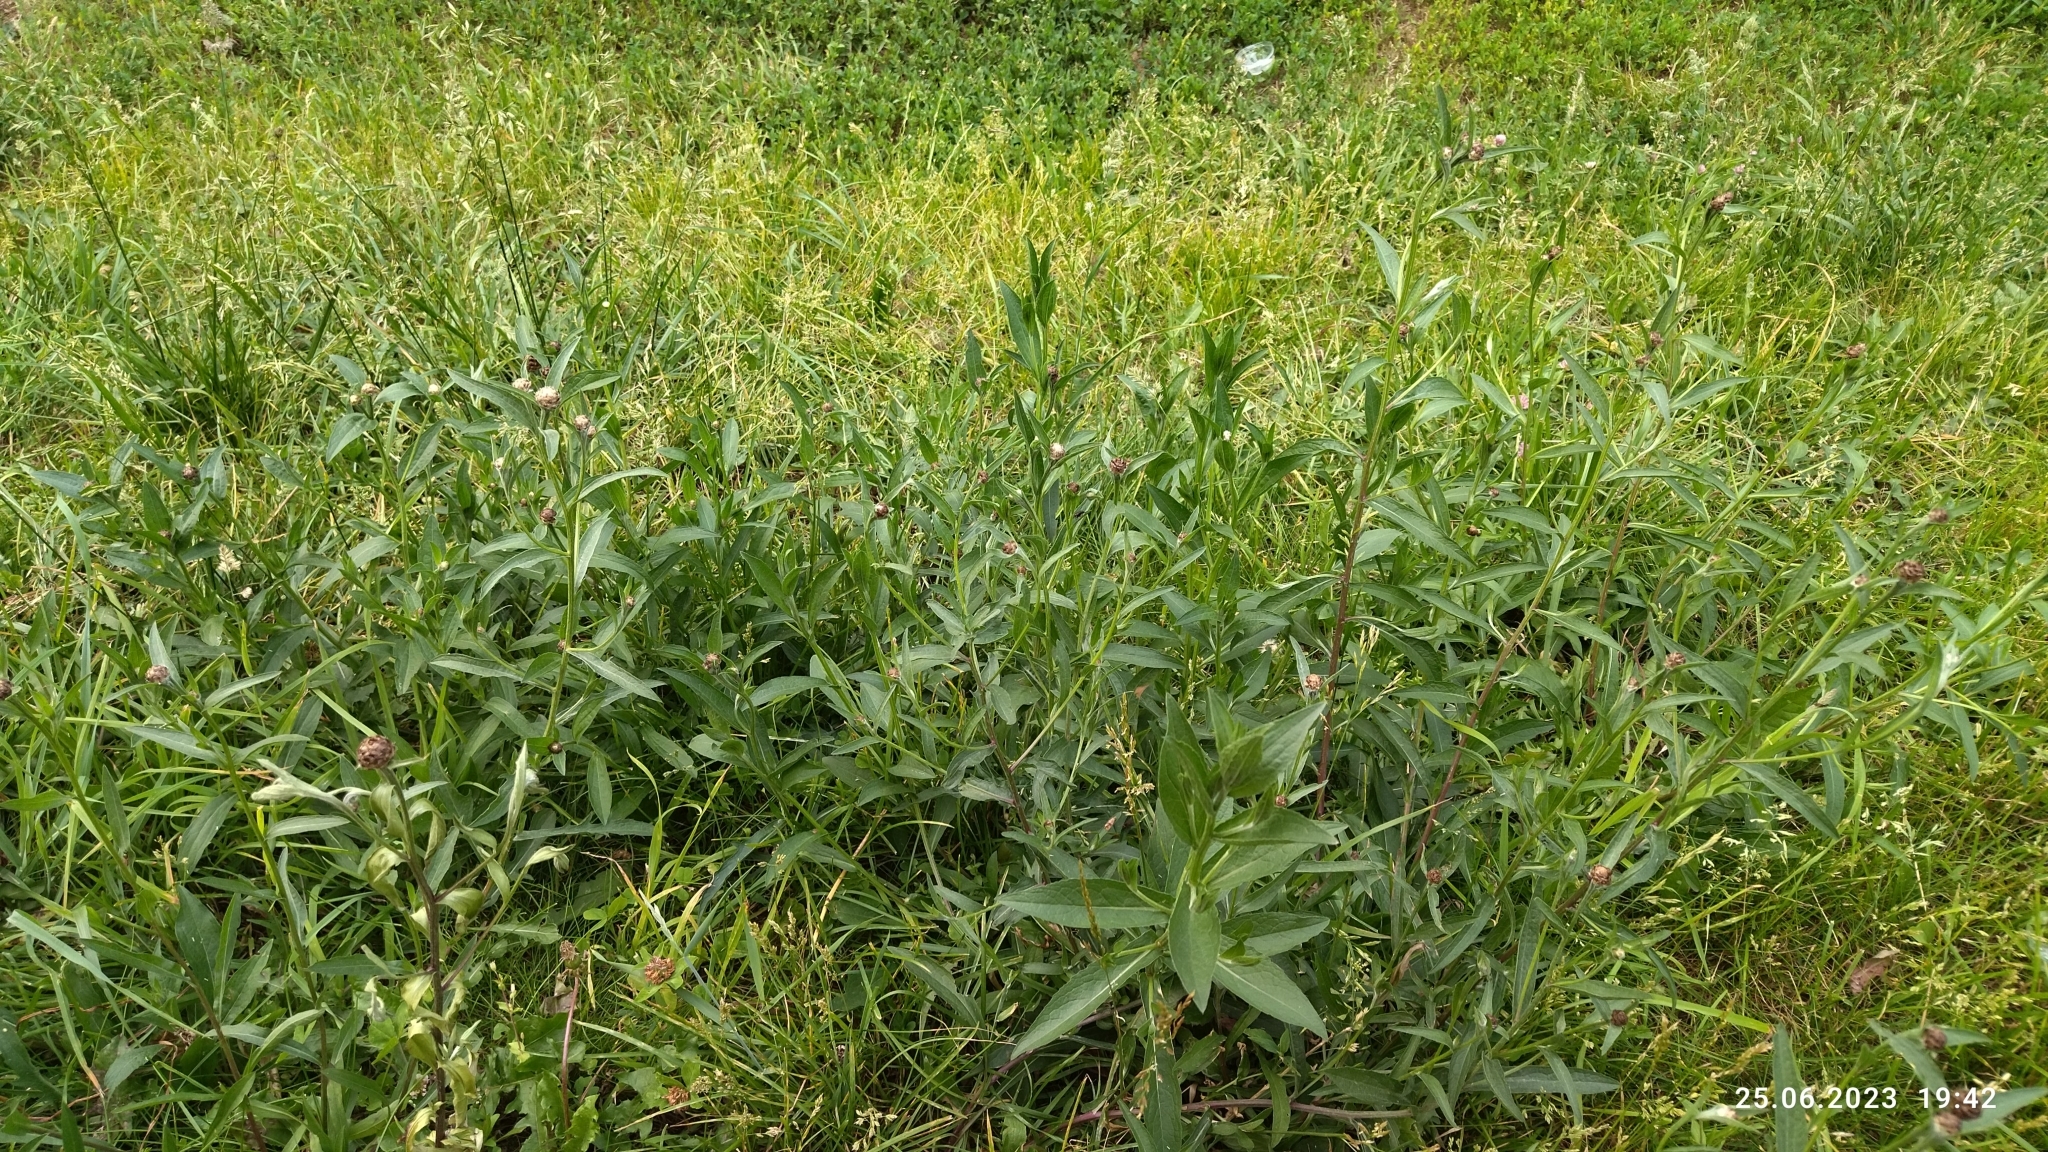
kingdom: Plantae
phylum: Tracheophyta
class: Magnoliopsida
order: Asterales
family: Asteraceae
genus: Centaurea
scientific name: Centaurea jacea
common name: Brown knapweed
